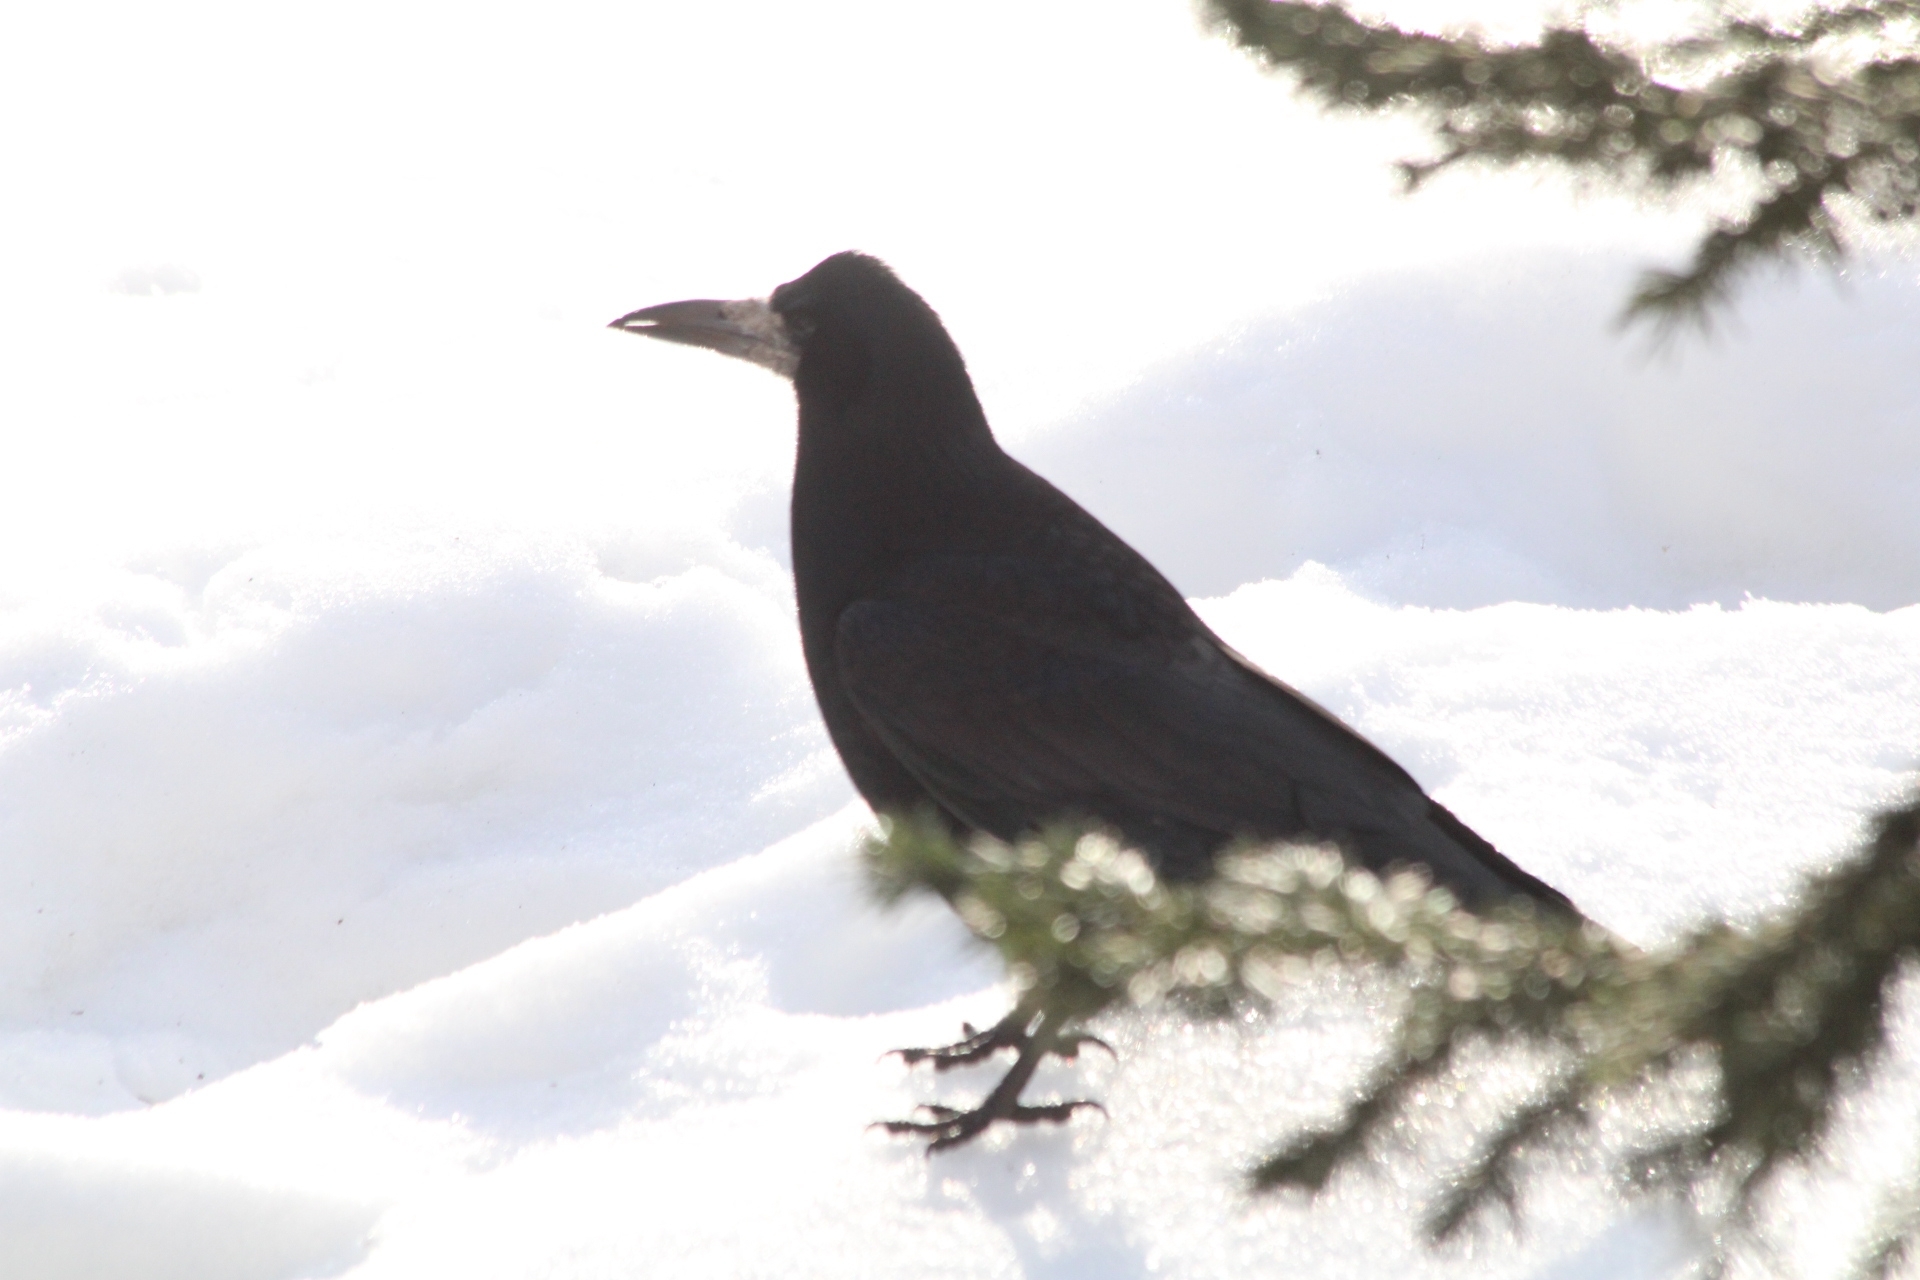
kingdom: Animalia
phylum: Chordata
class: Aves
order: Passeriformes
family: Corvidae
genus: Corvus
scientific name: Corvus frugilegus
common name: Rook
